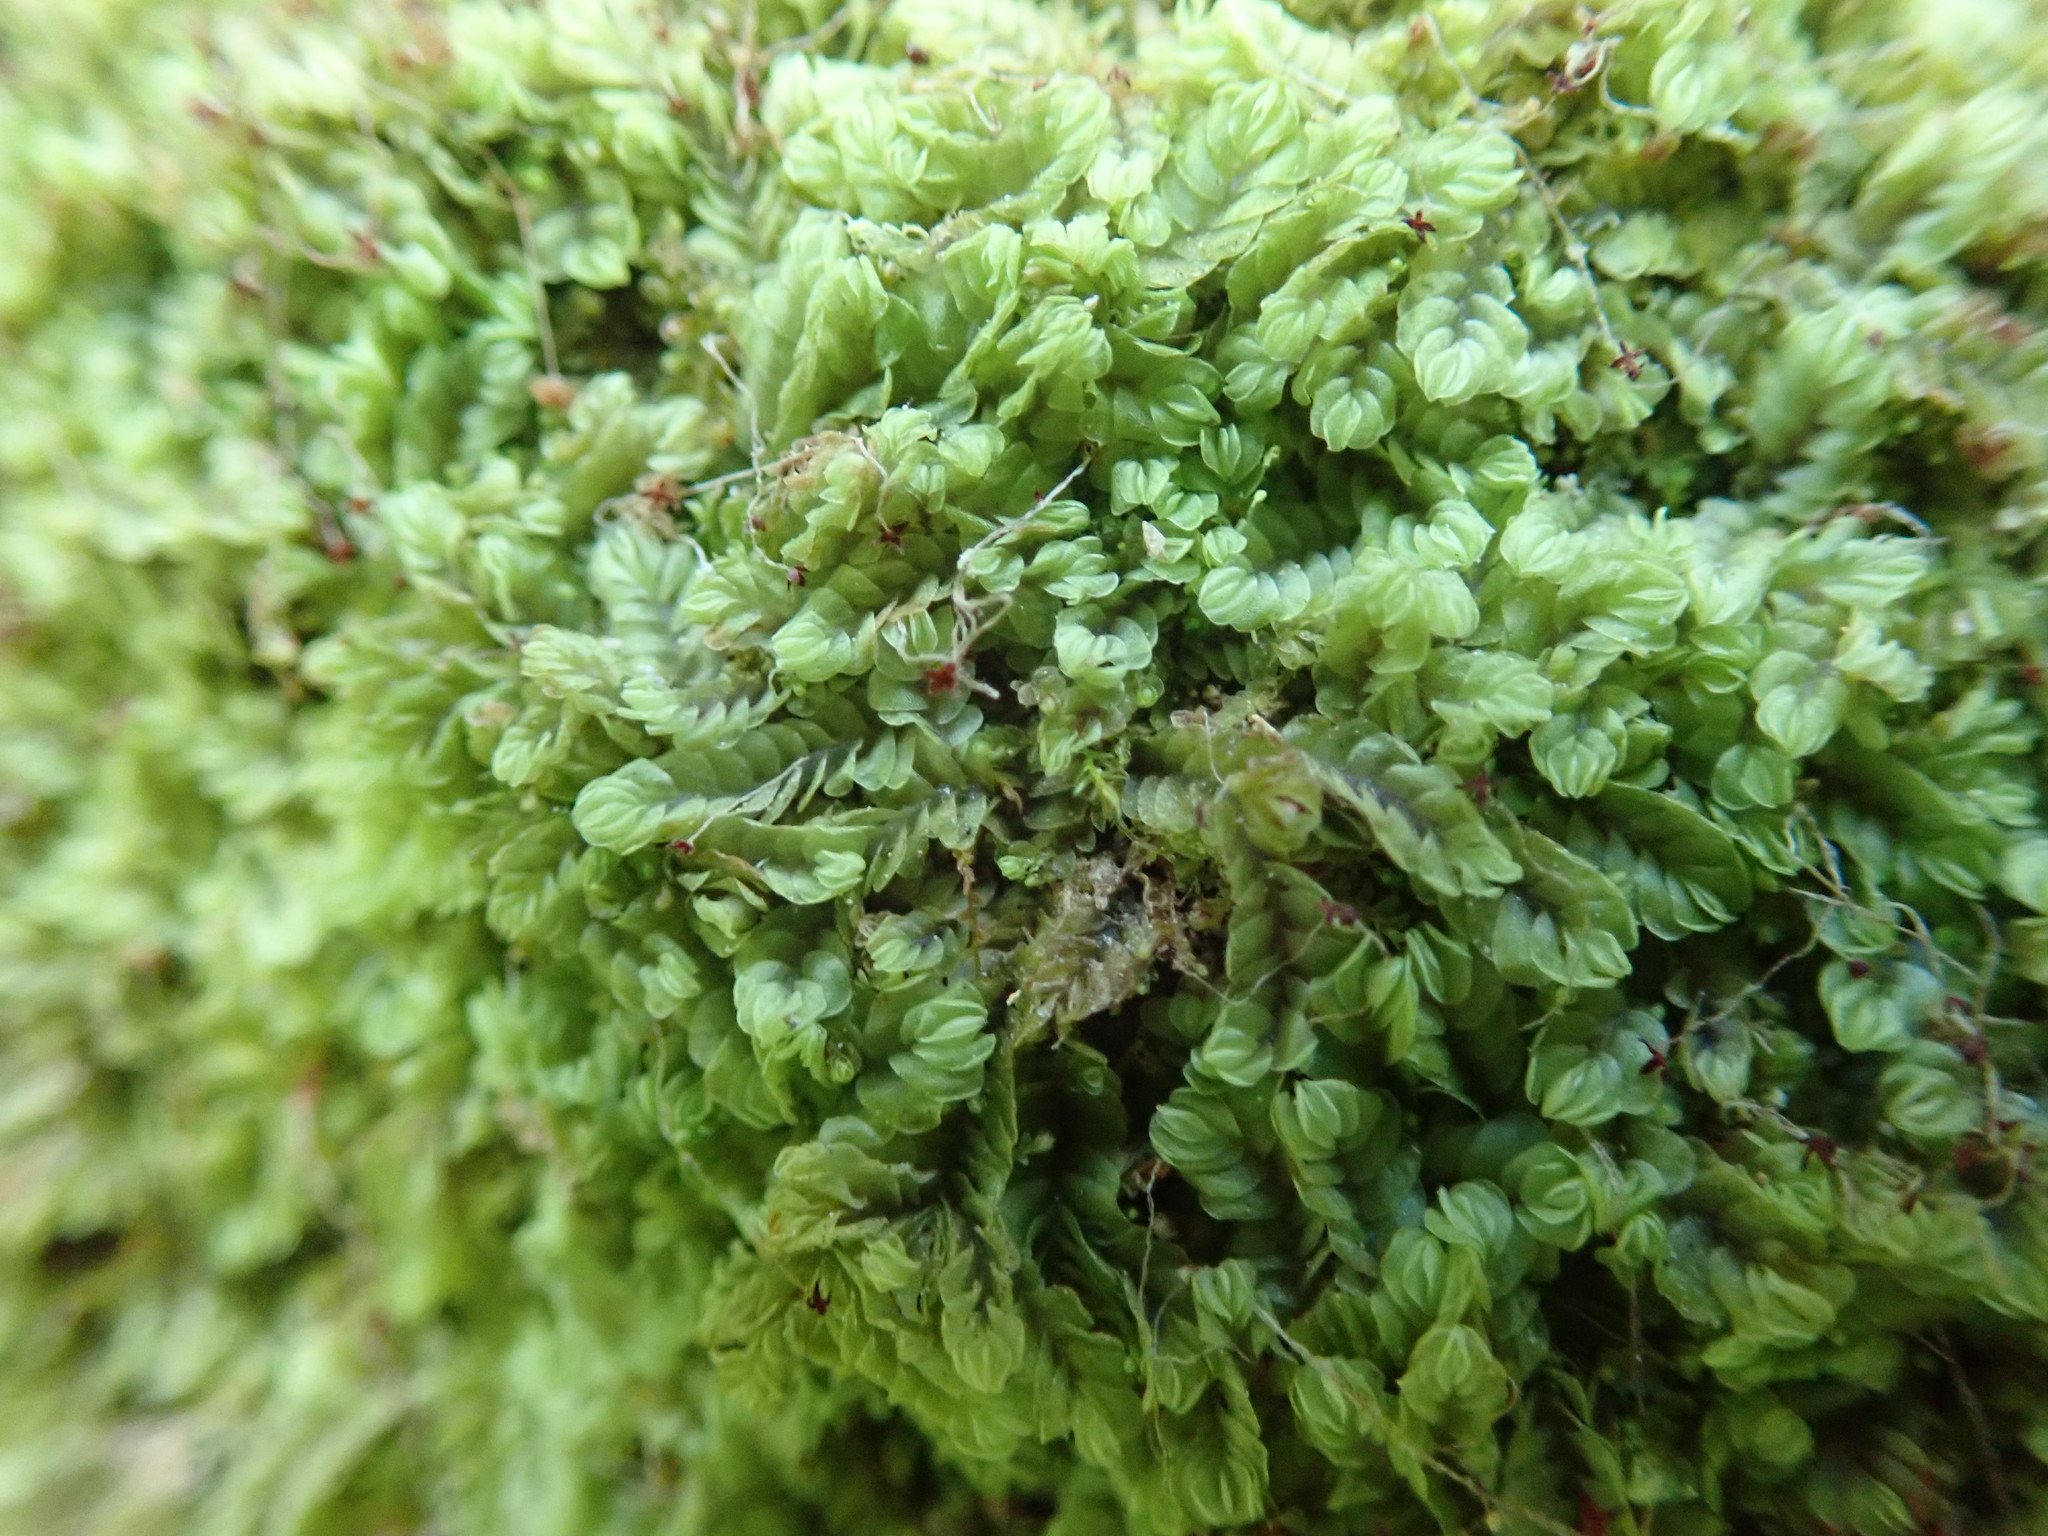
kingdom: Plantae
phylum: Marchantiophyta
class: Jungermanniopsida
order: Jungermanniales
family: Gyrothyraceae
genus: Gyrothyra
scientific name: Gyrothyra underwoodiana
